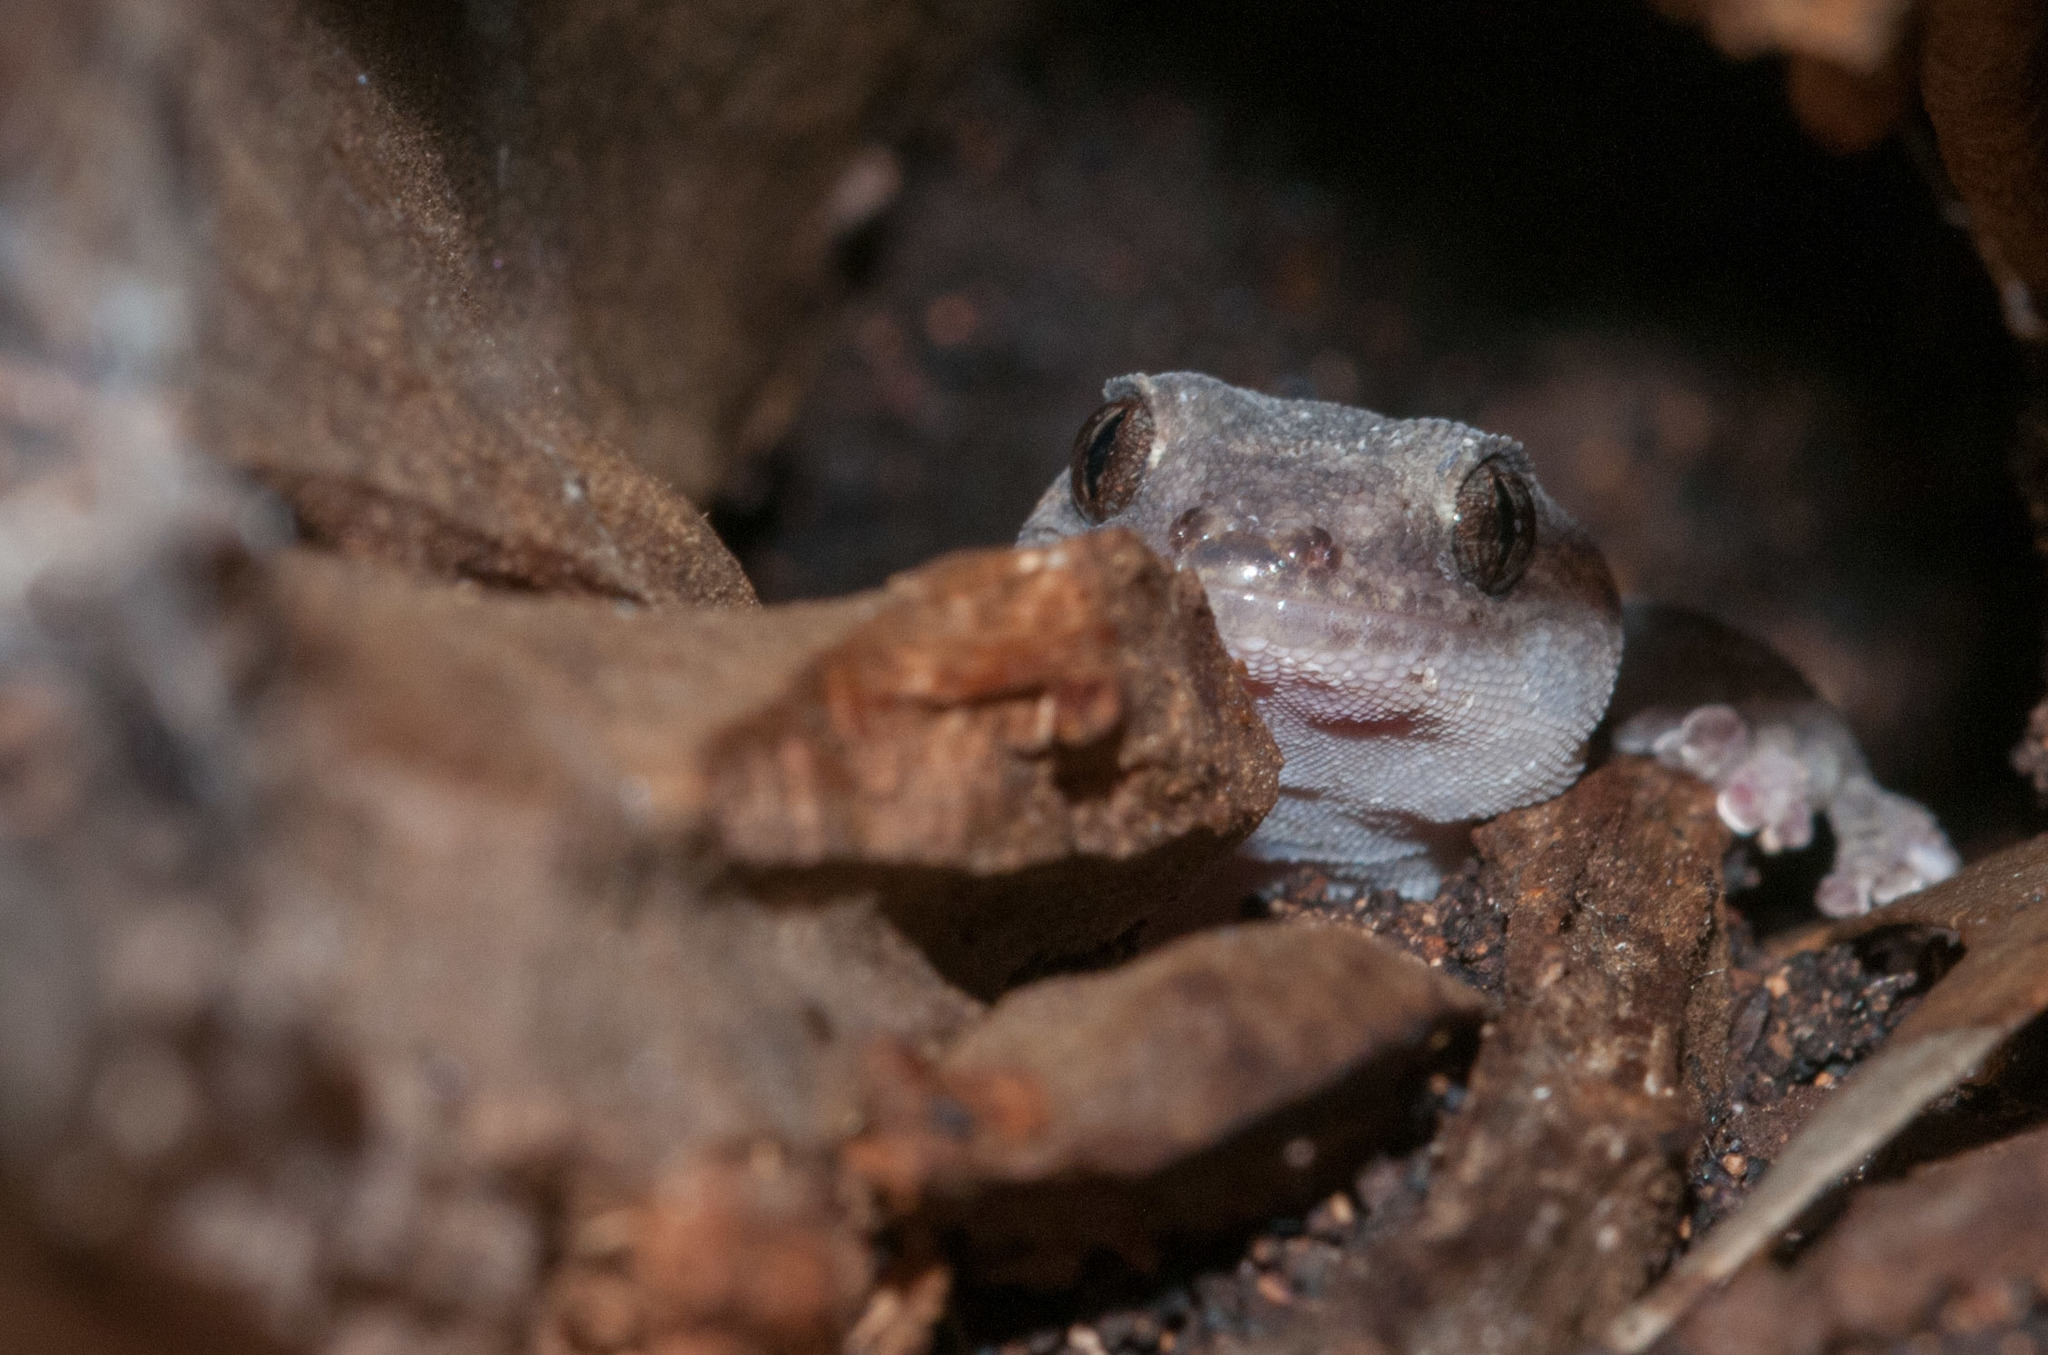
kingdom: Animalia
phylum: Chordata
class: Squamata
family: Gekkonidae
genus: Christinus
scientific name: Christinus marmoratus
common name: Marbled gecko
